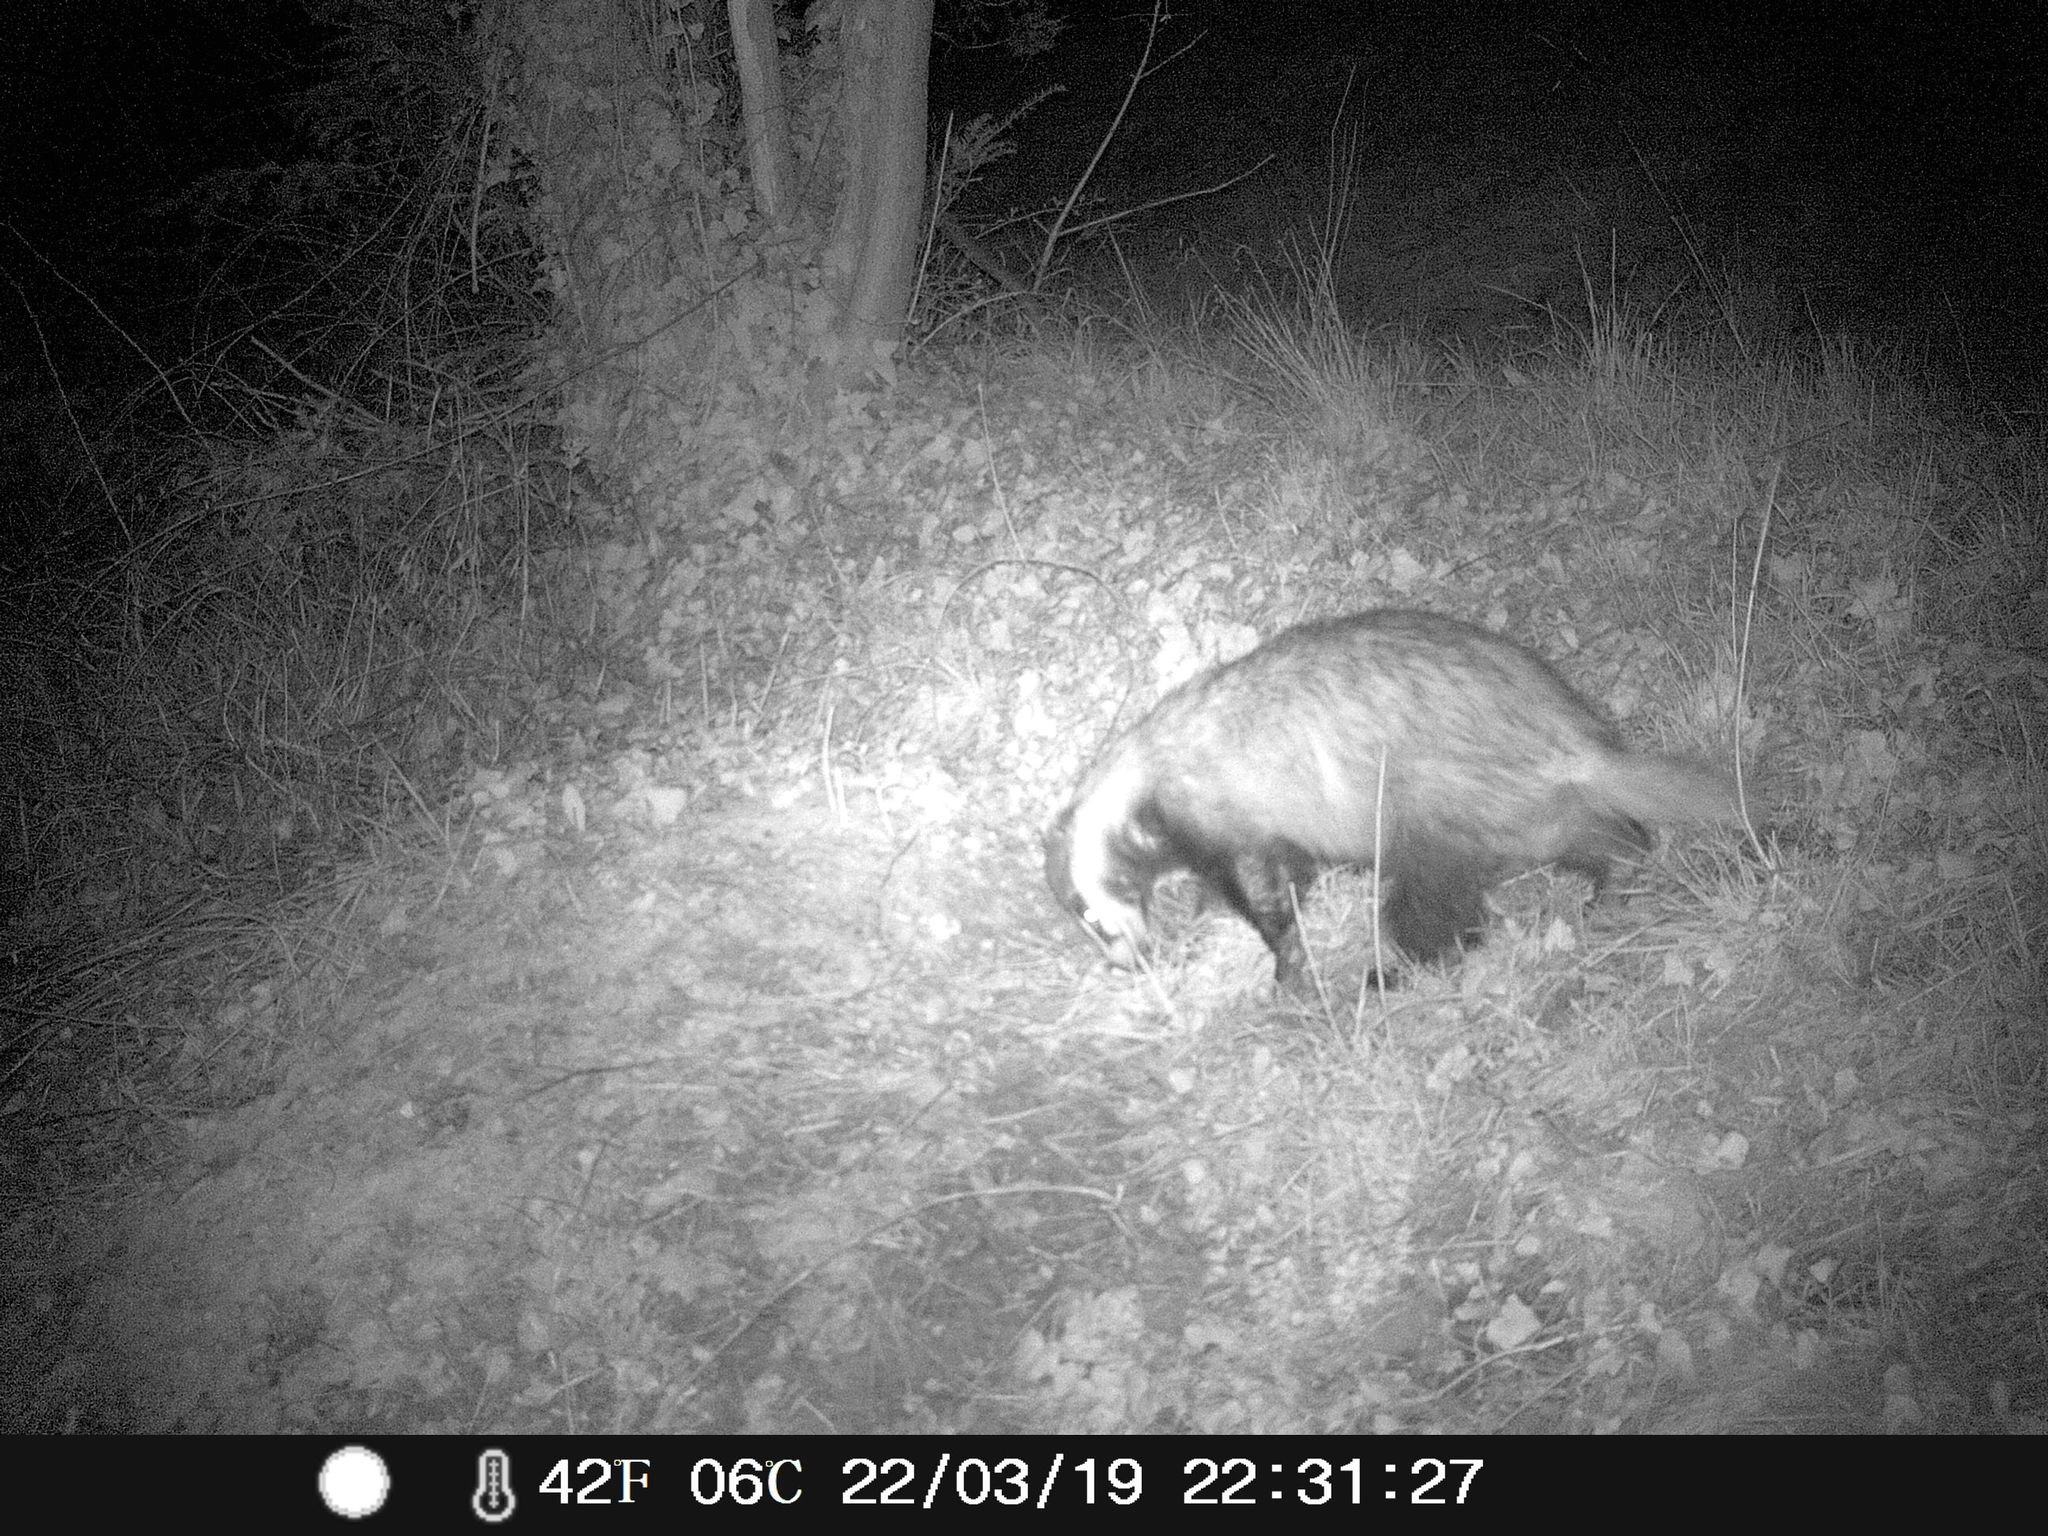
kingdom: Animalia
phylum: Chordata
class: Mammalia
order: Carnivora
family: Mustelidae
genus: Meles
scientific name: Meles meles
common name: Eurasian badger
